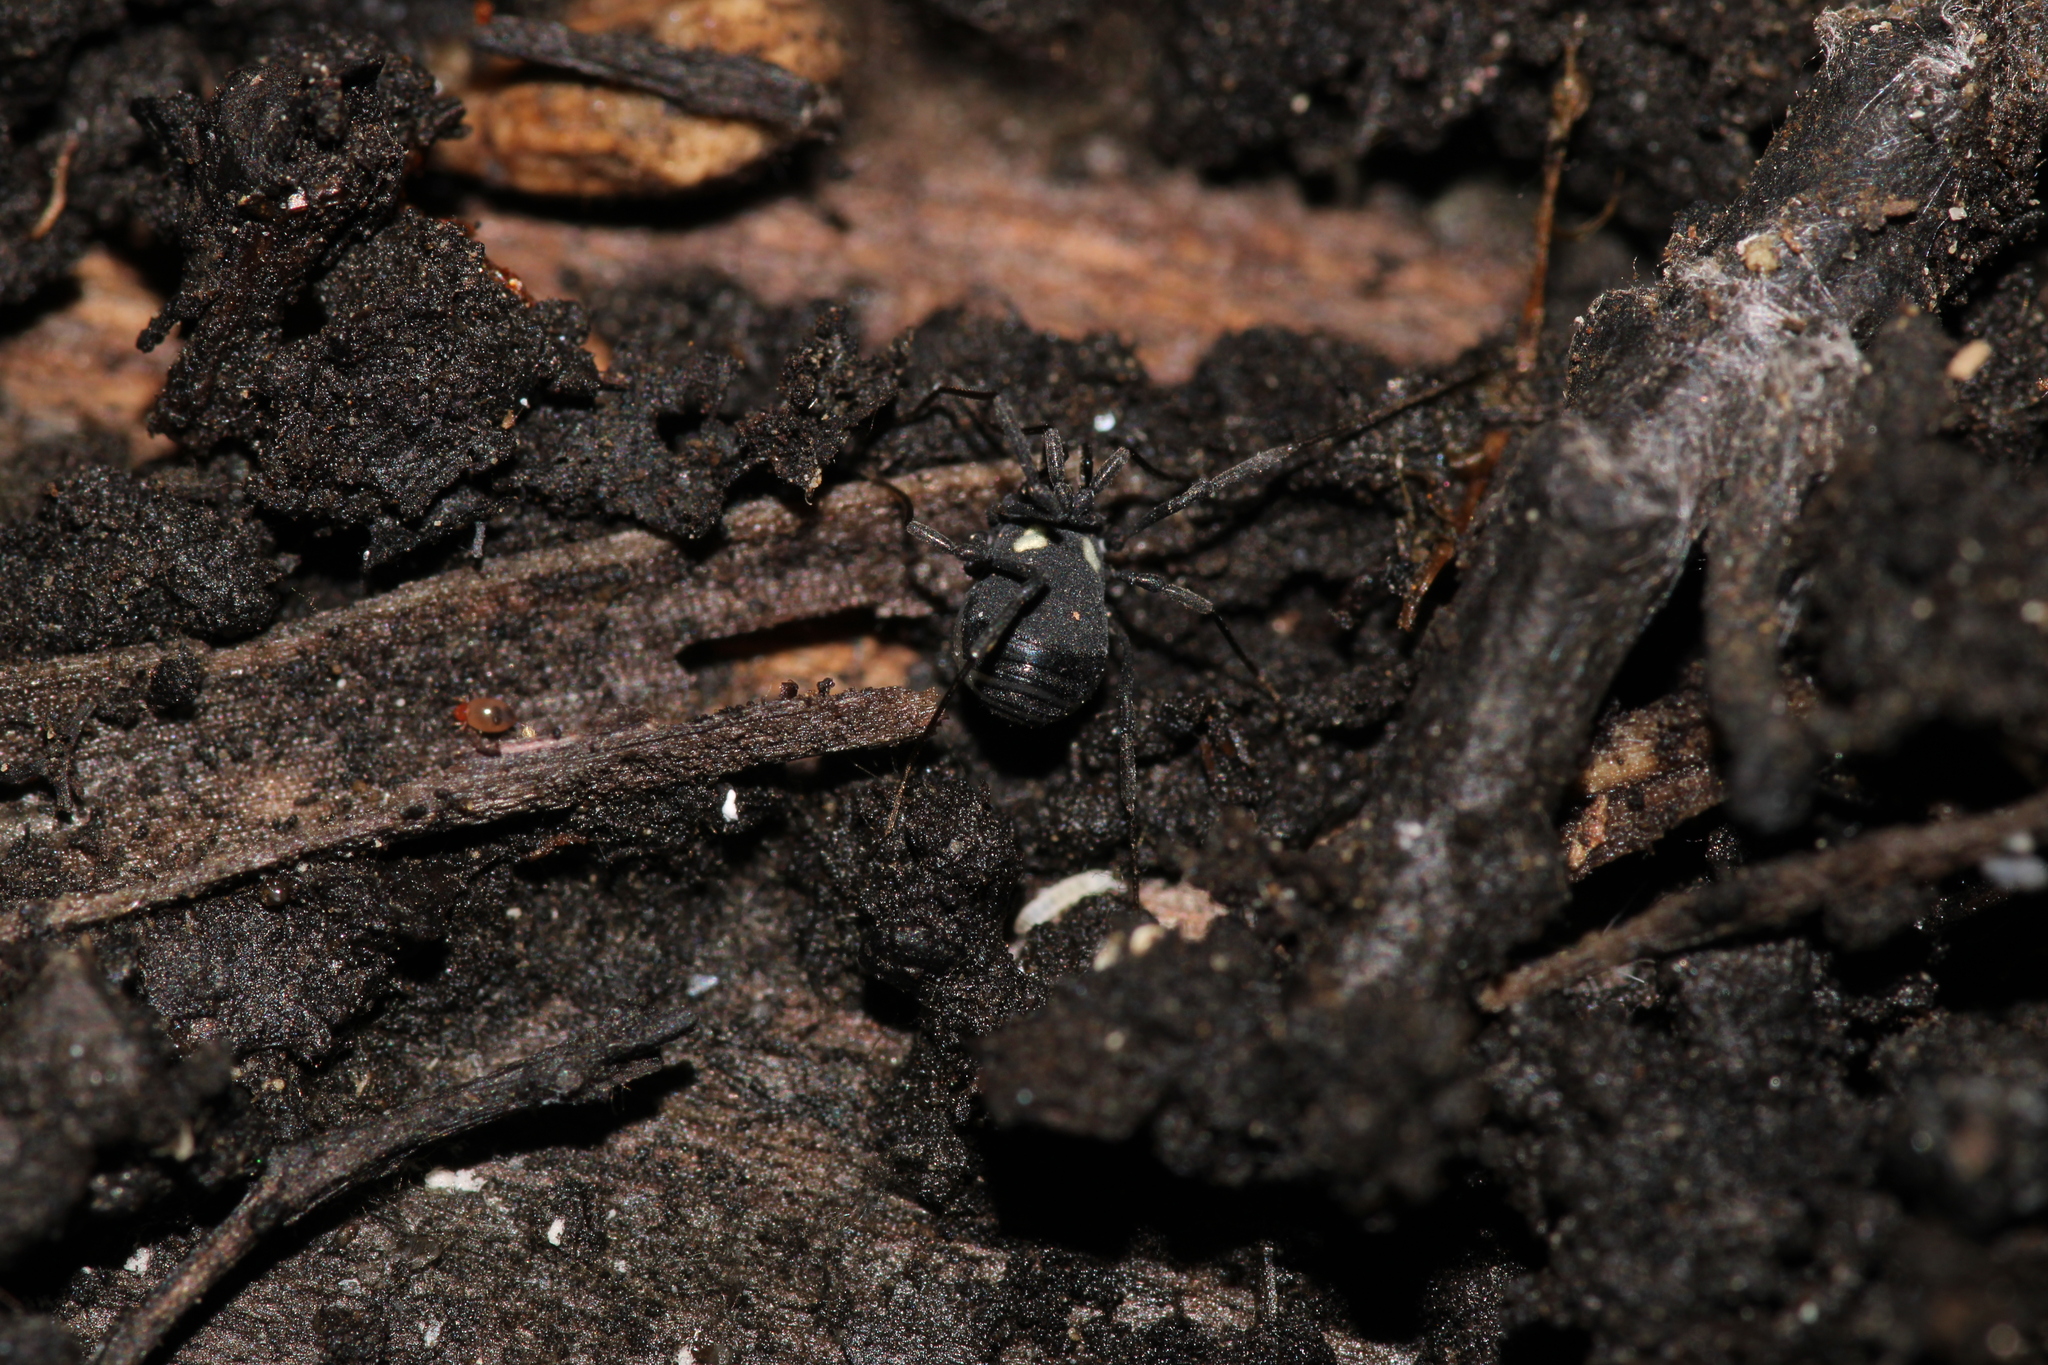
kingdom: Animalia
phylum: Arthropoda
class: Arachnida
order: Opiliones
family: Nemastomatidae
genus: Nemastoma
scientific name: Nemastoma lugubre
